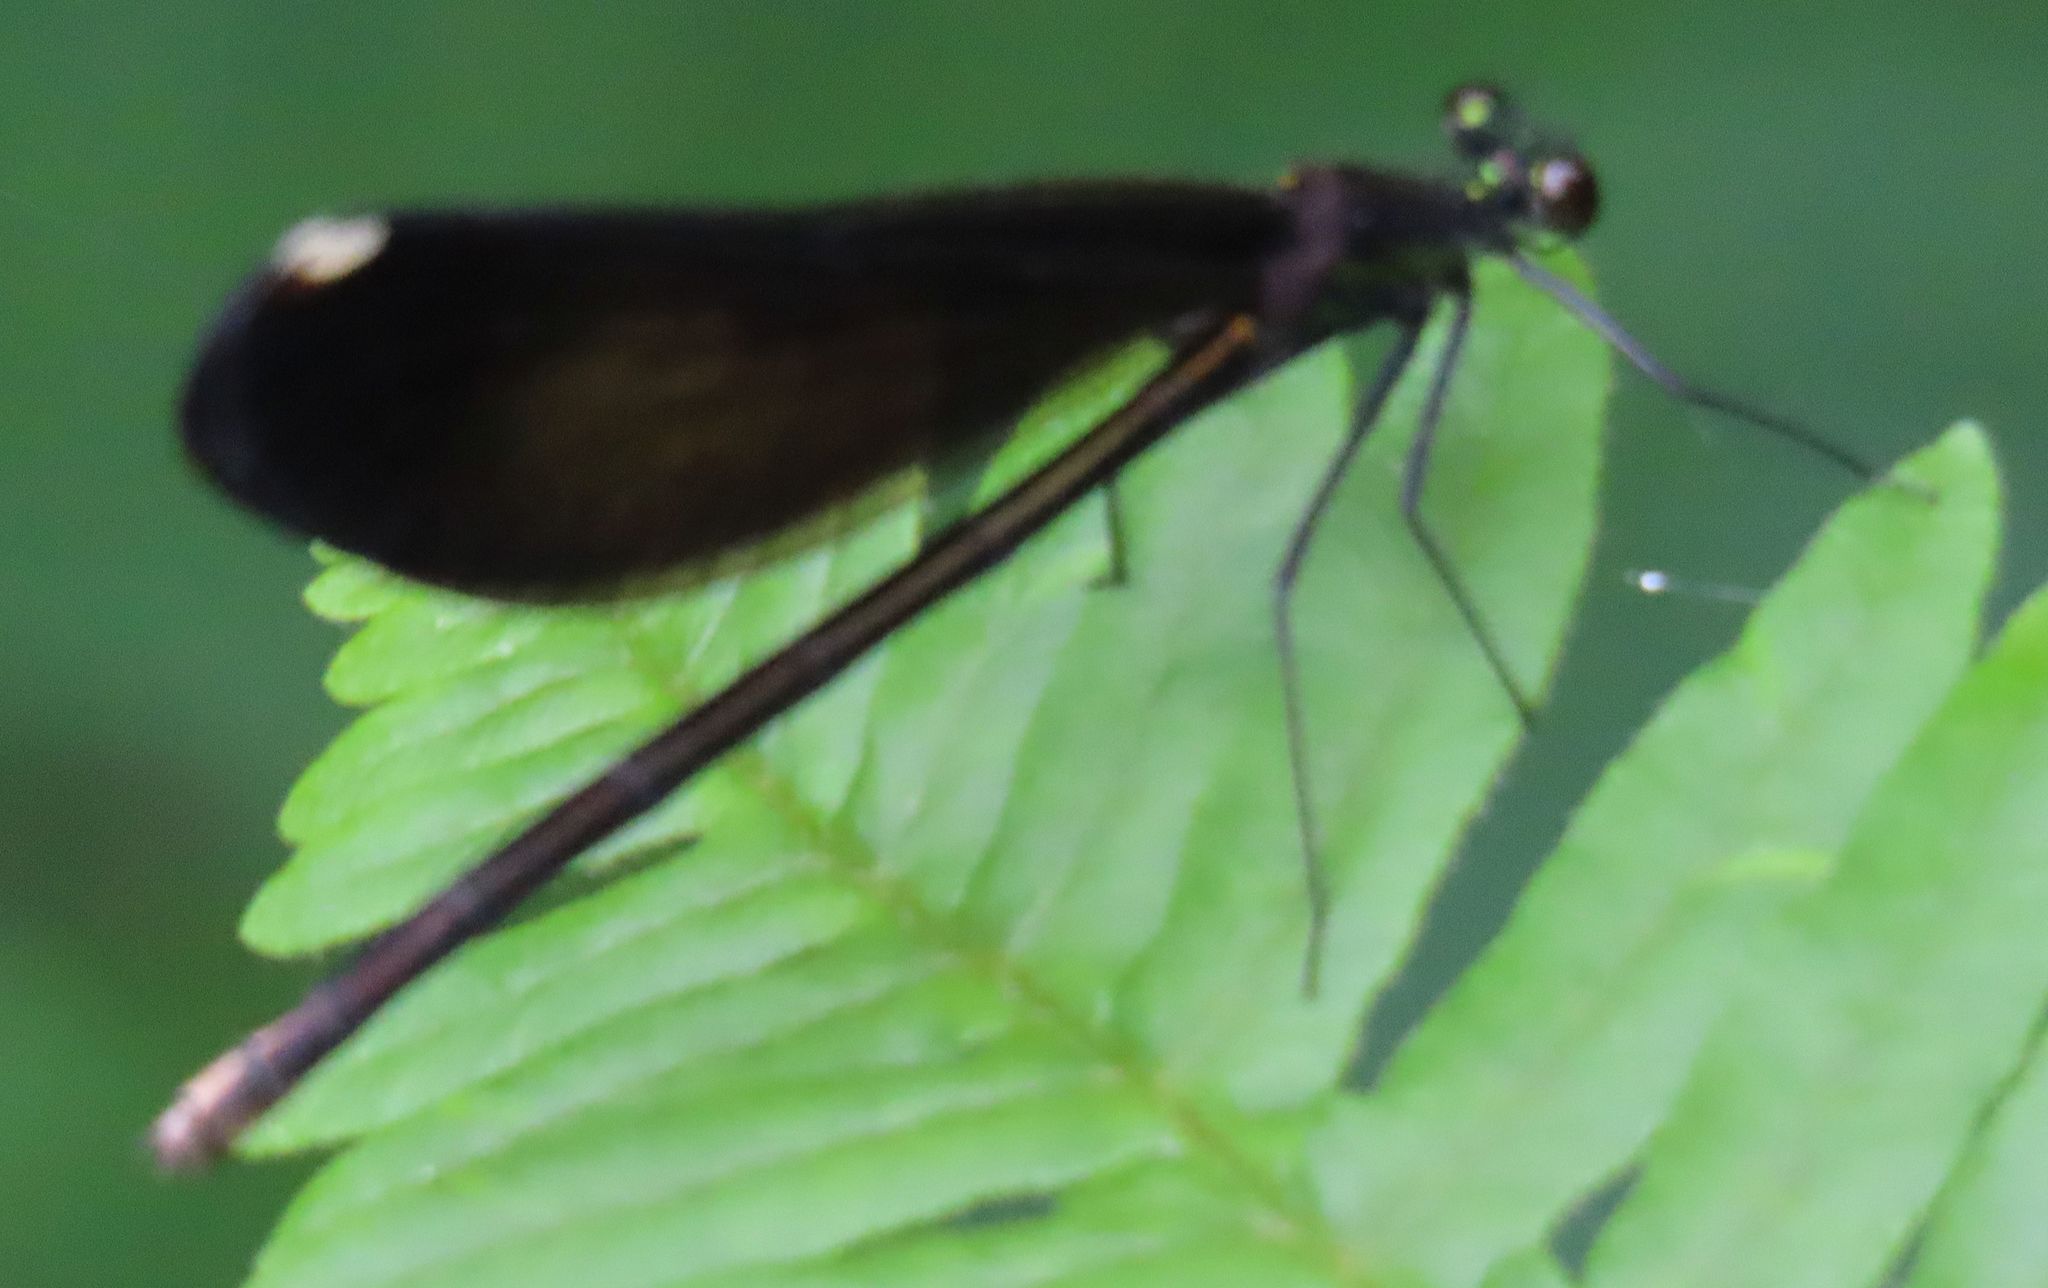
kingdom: Animalia
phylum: Arthropoda
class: Insecta
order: Odonata
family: Calopterygidae
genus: Calopteryx
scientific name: Calopteryx maculata
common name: Ebony jewelwing
